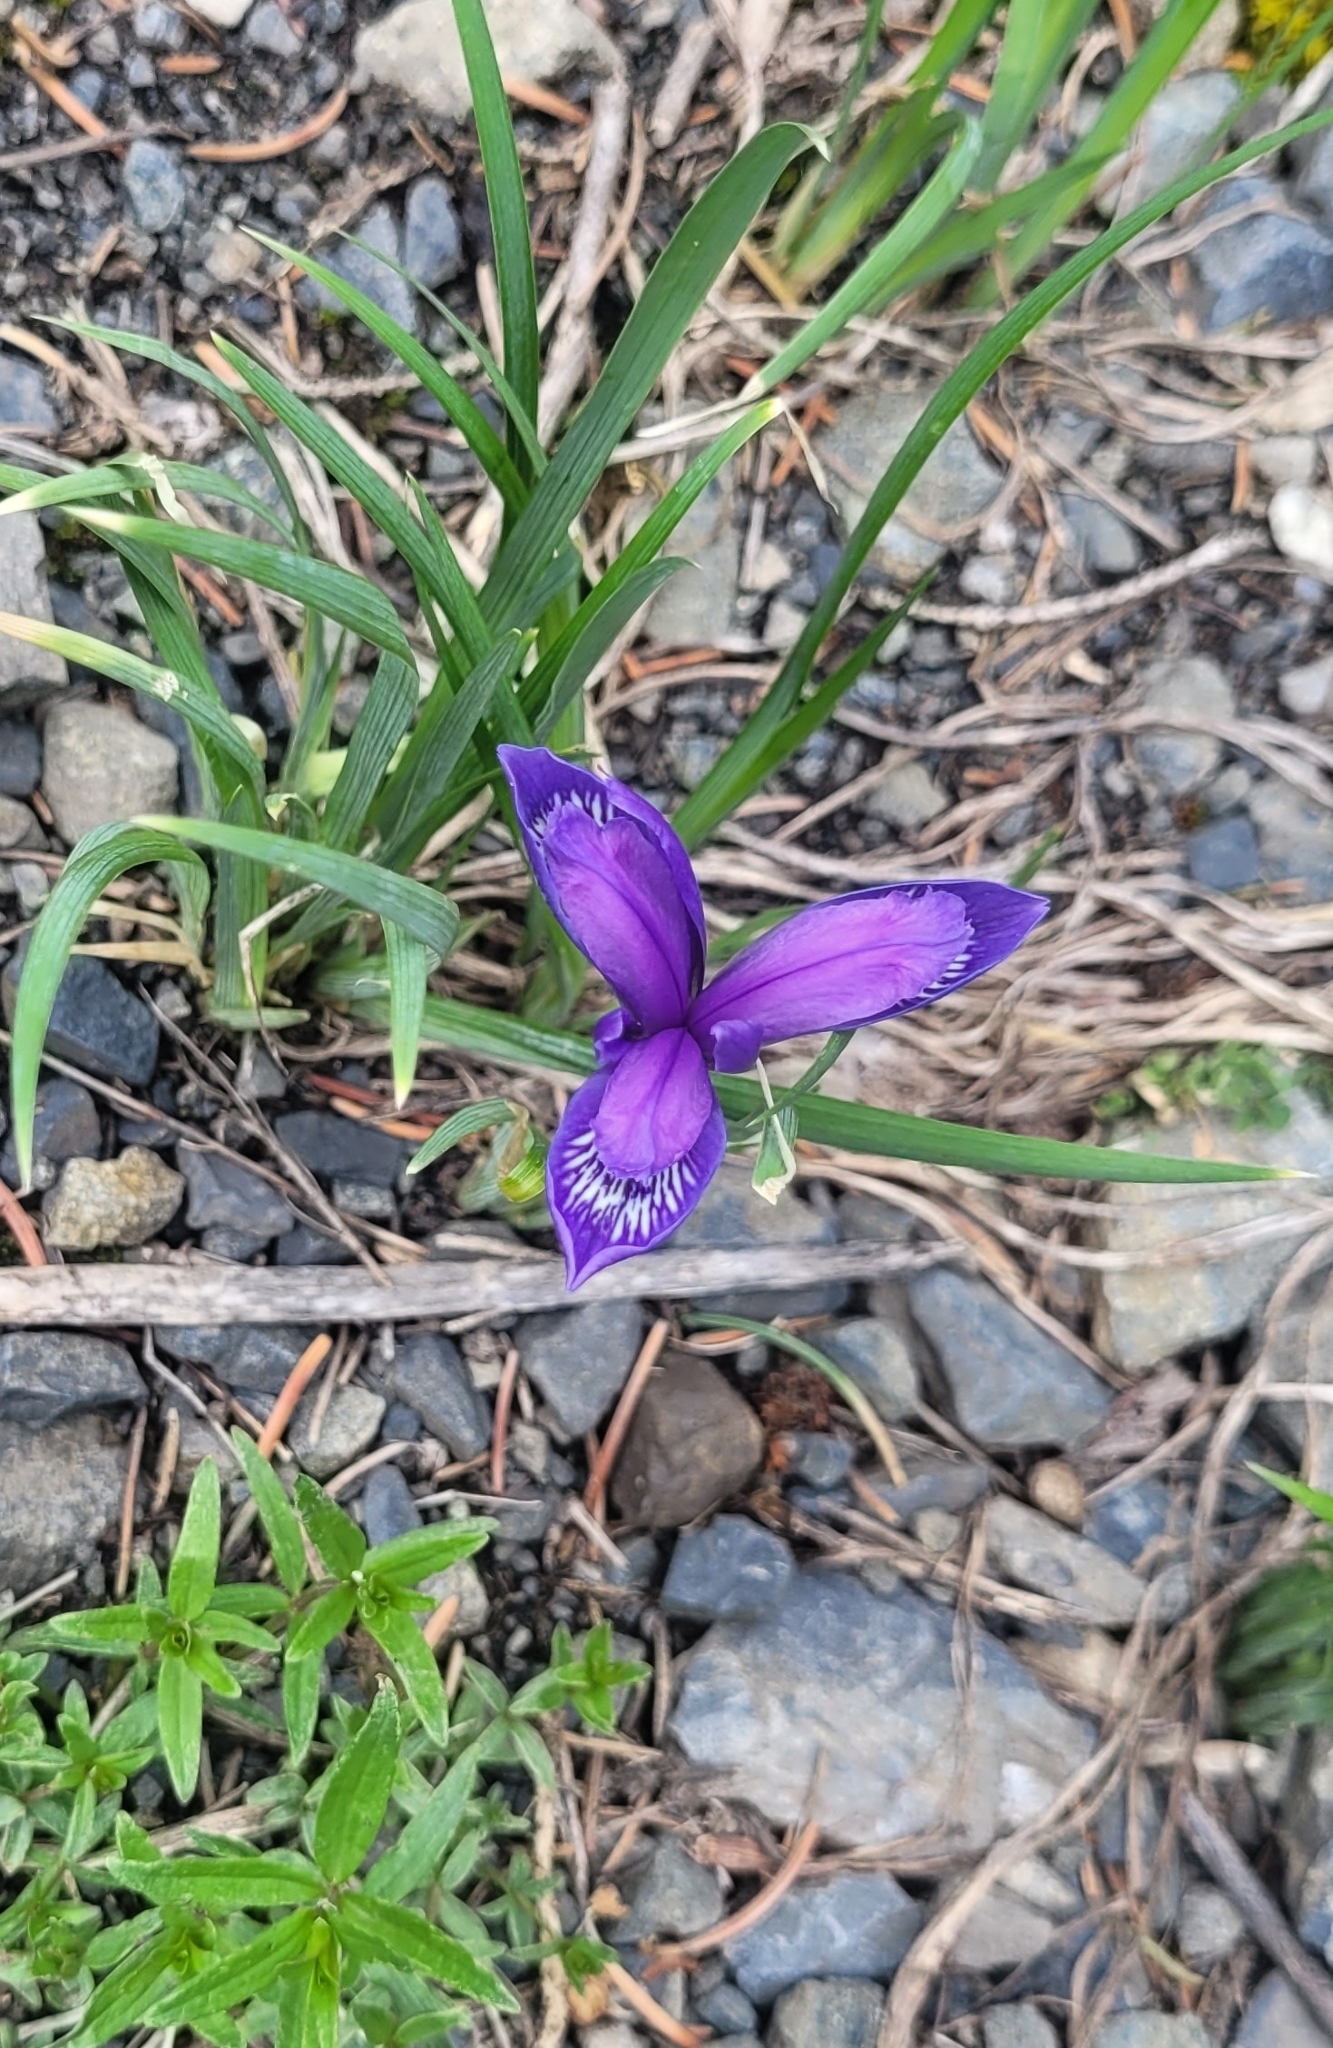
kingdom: Plantae
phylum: Tracheophyta
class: Liliopsida
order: Asparagales
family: Iridaceae
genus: Iris
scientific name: Iris ruthenica
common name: Purple-bract iris
